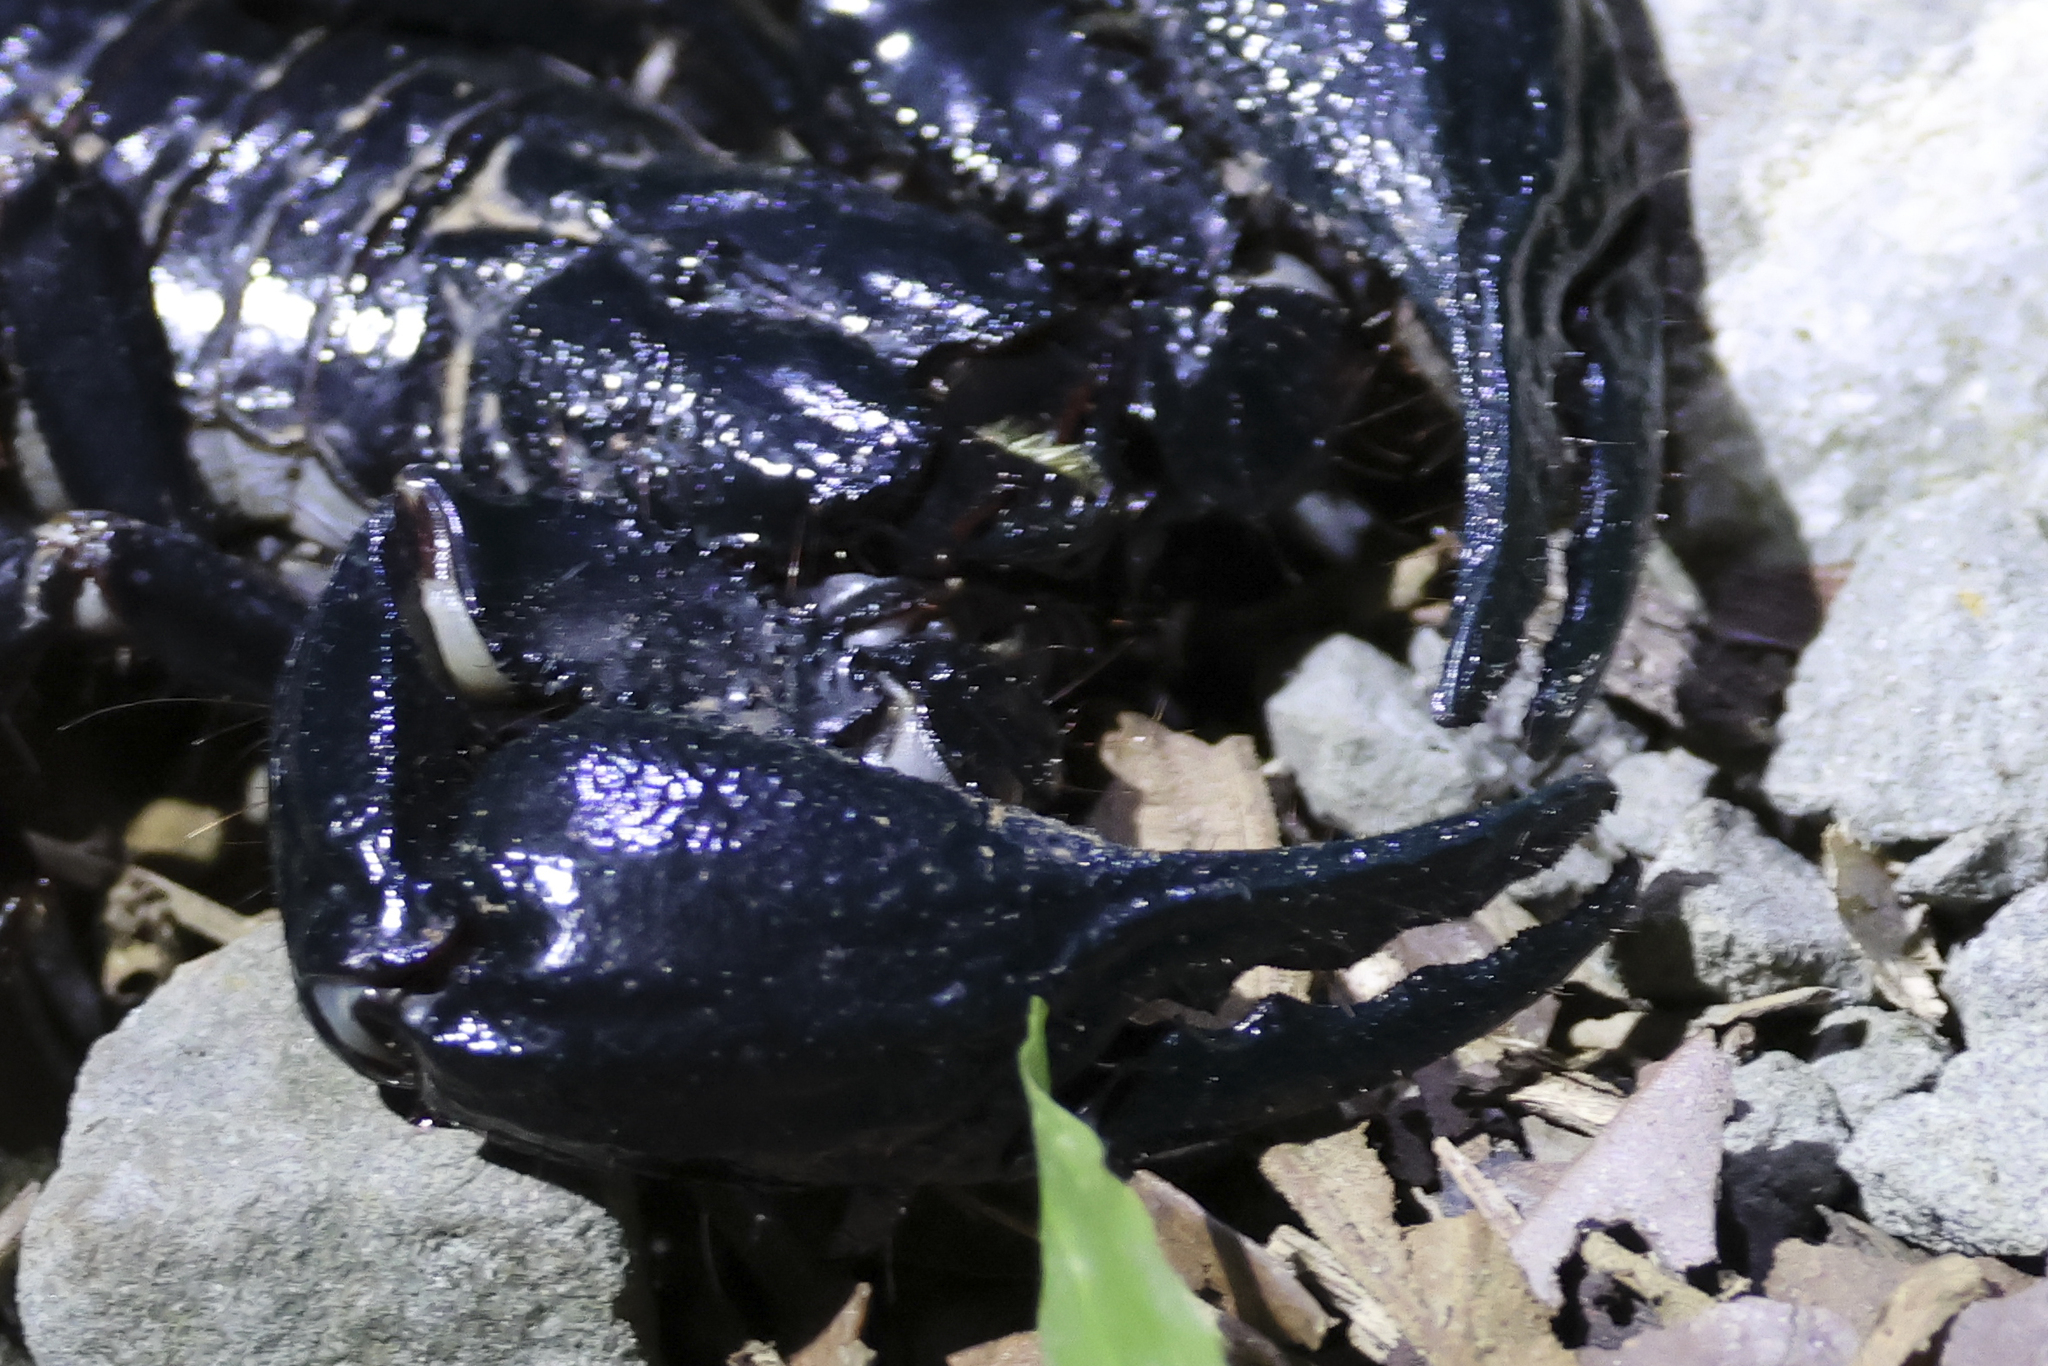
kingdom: Animalia
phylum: Arthropoda
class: Arachnida
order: Scorpiones
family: Scorpionidae
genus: Heterometrus
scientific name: Heterometrus longimanus
